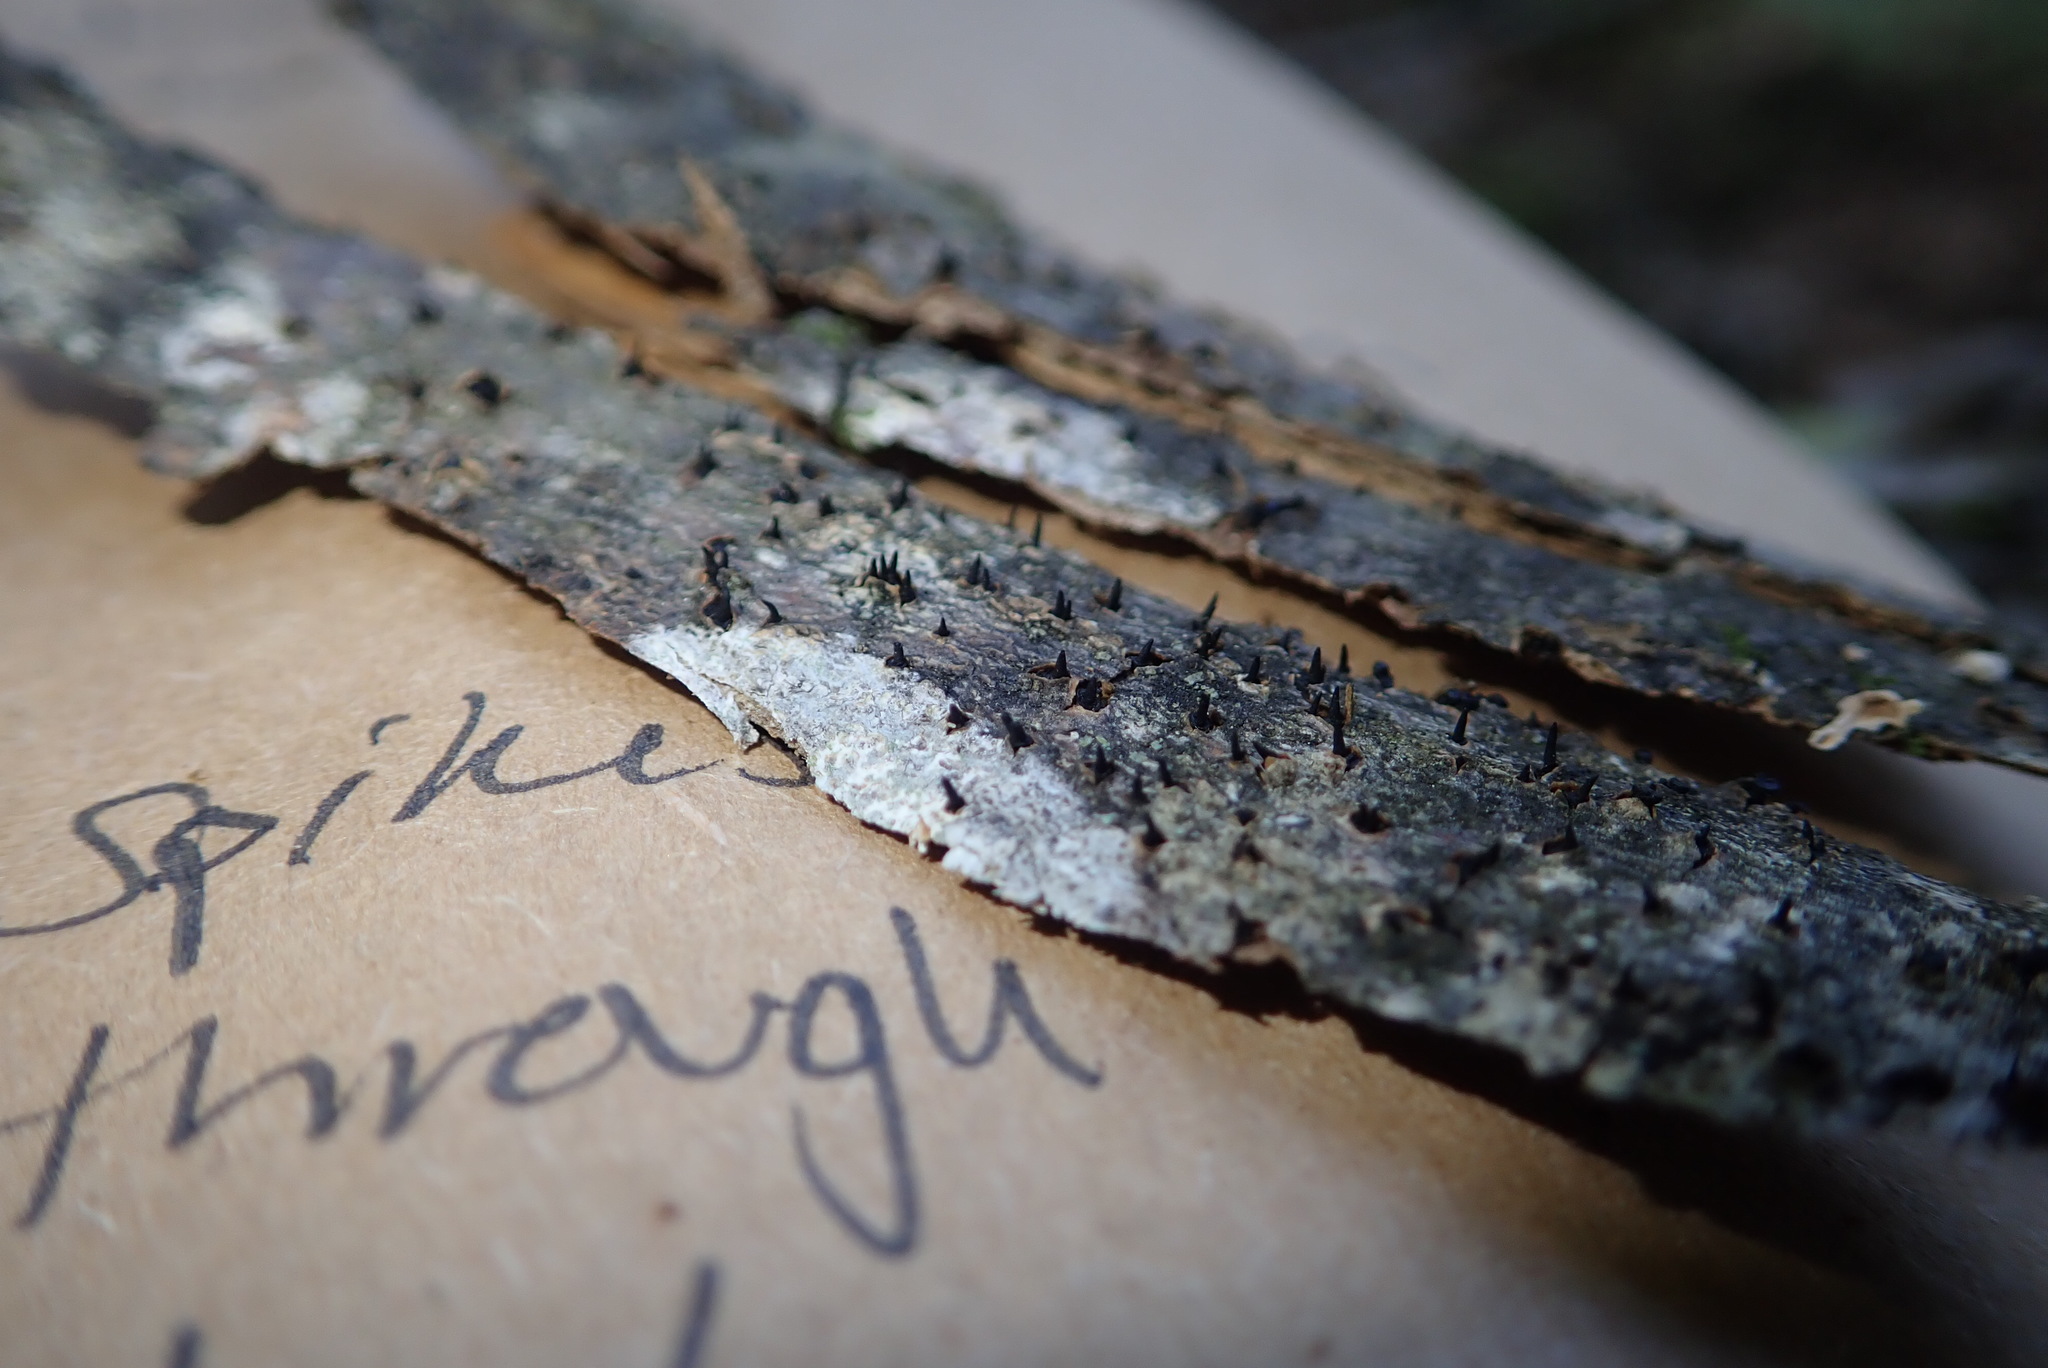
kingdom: Fungi
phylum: Ascomycota
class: Leotiomycetes
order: Leotiales
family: Tympanidaceae
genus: Durandiella
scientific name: Durandiella fraxini
